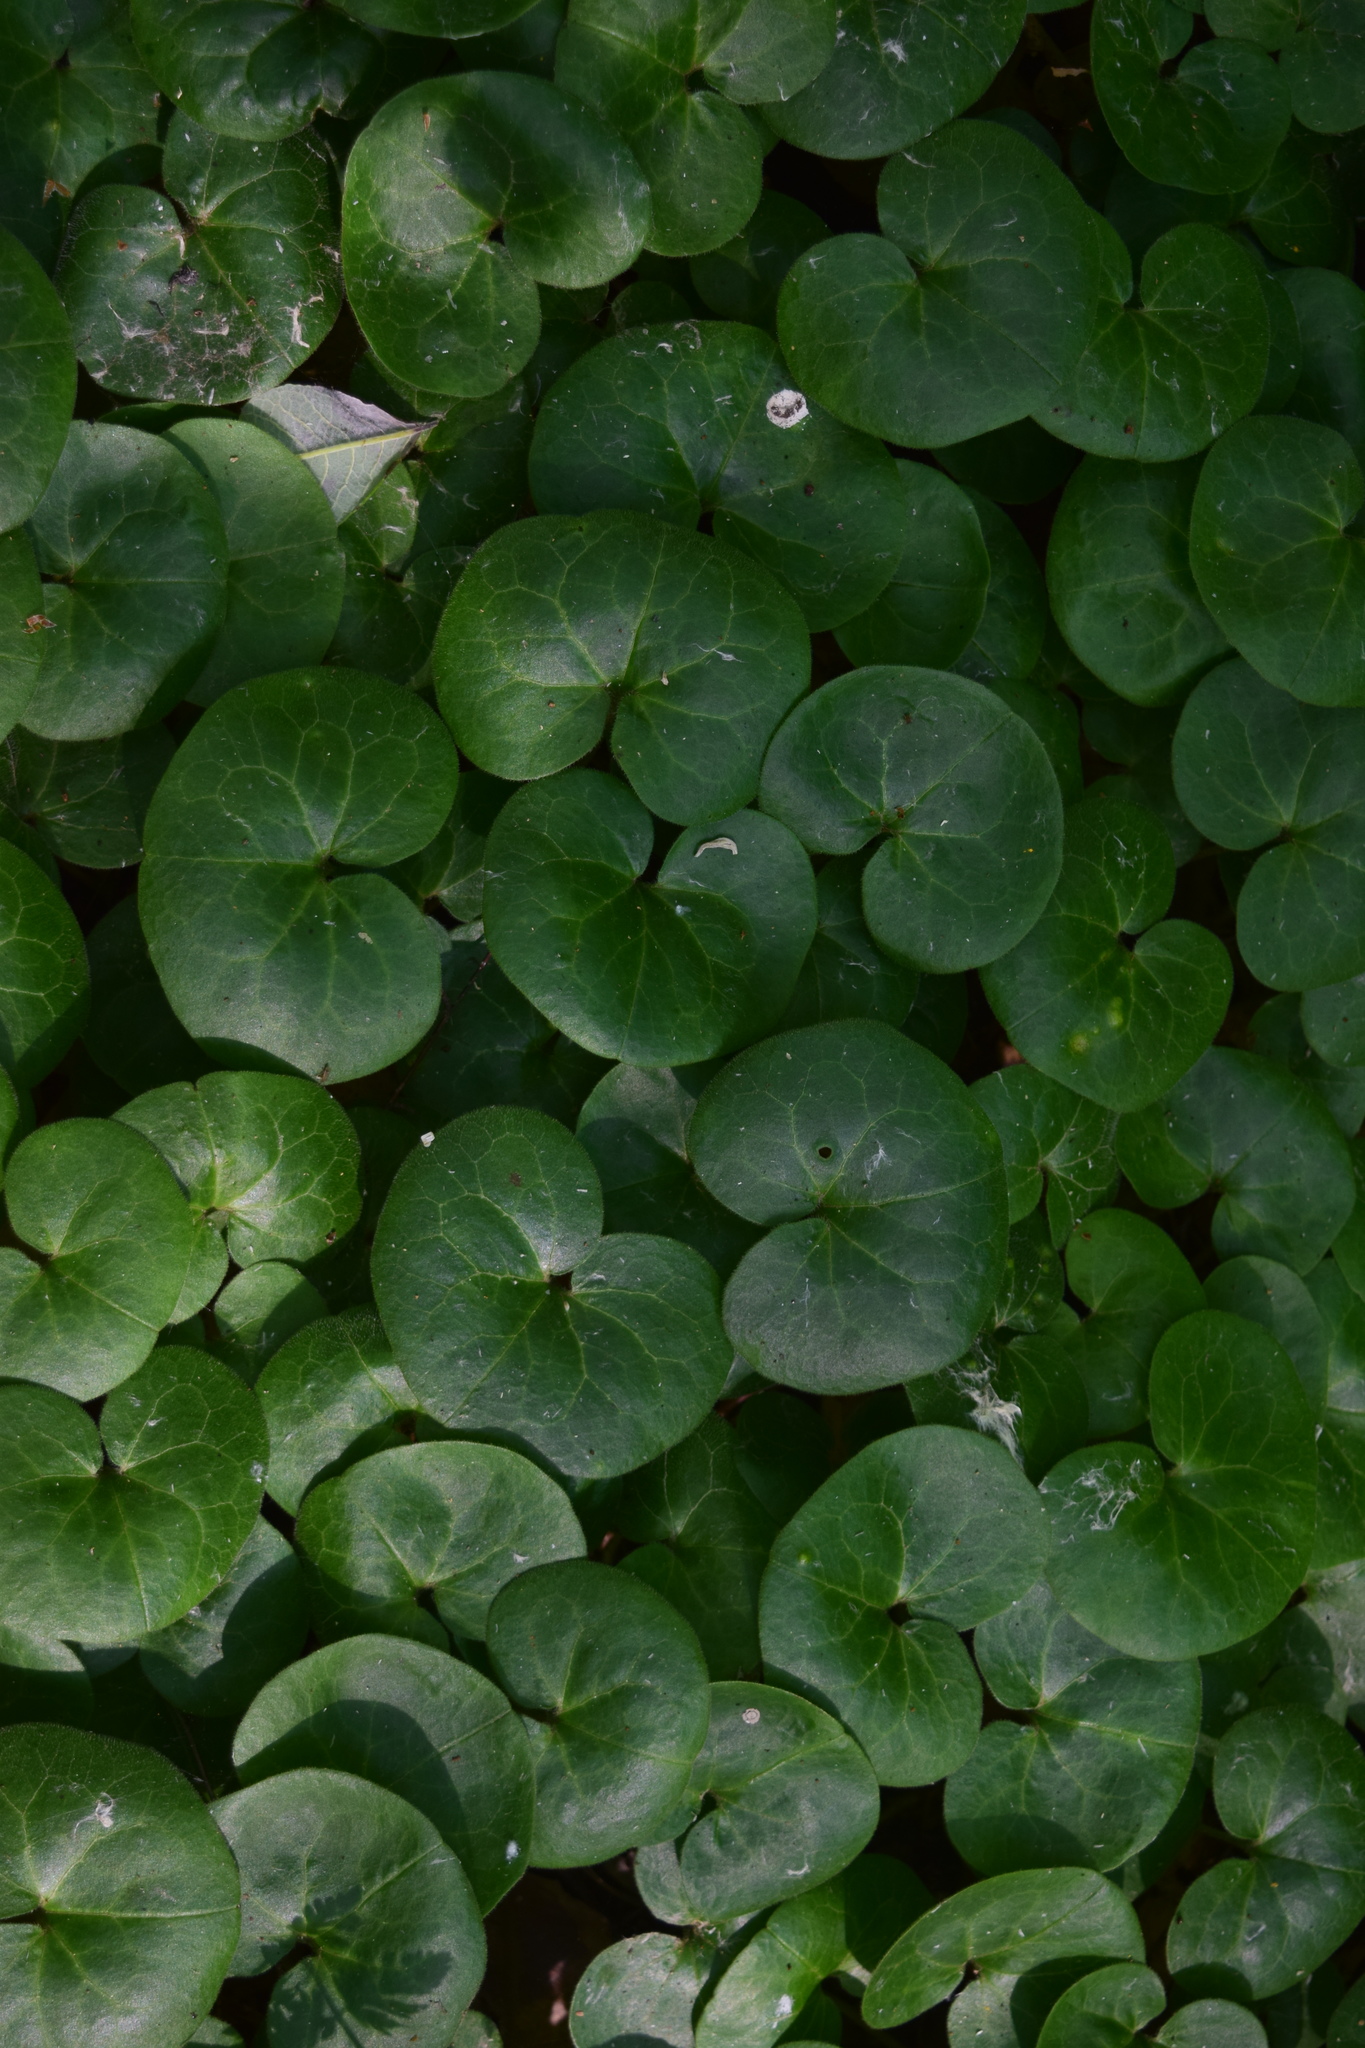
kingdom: Plantae
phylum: Tracheophyta
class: Magnoliopsida
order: Piperales
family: Aristolochiaceae
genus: Asarum
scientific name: Asarum europaeum
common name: Asarabacca
